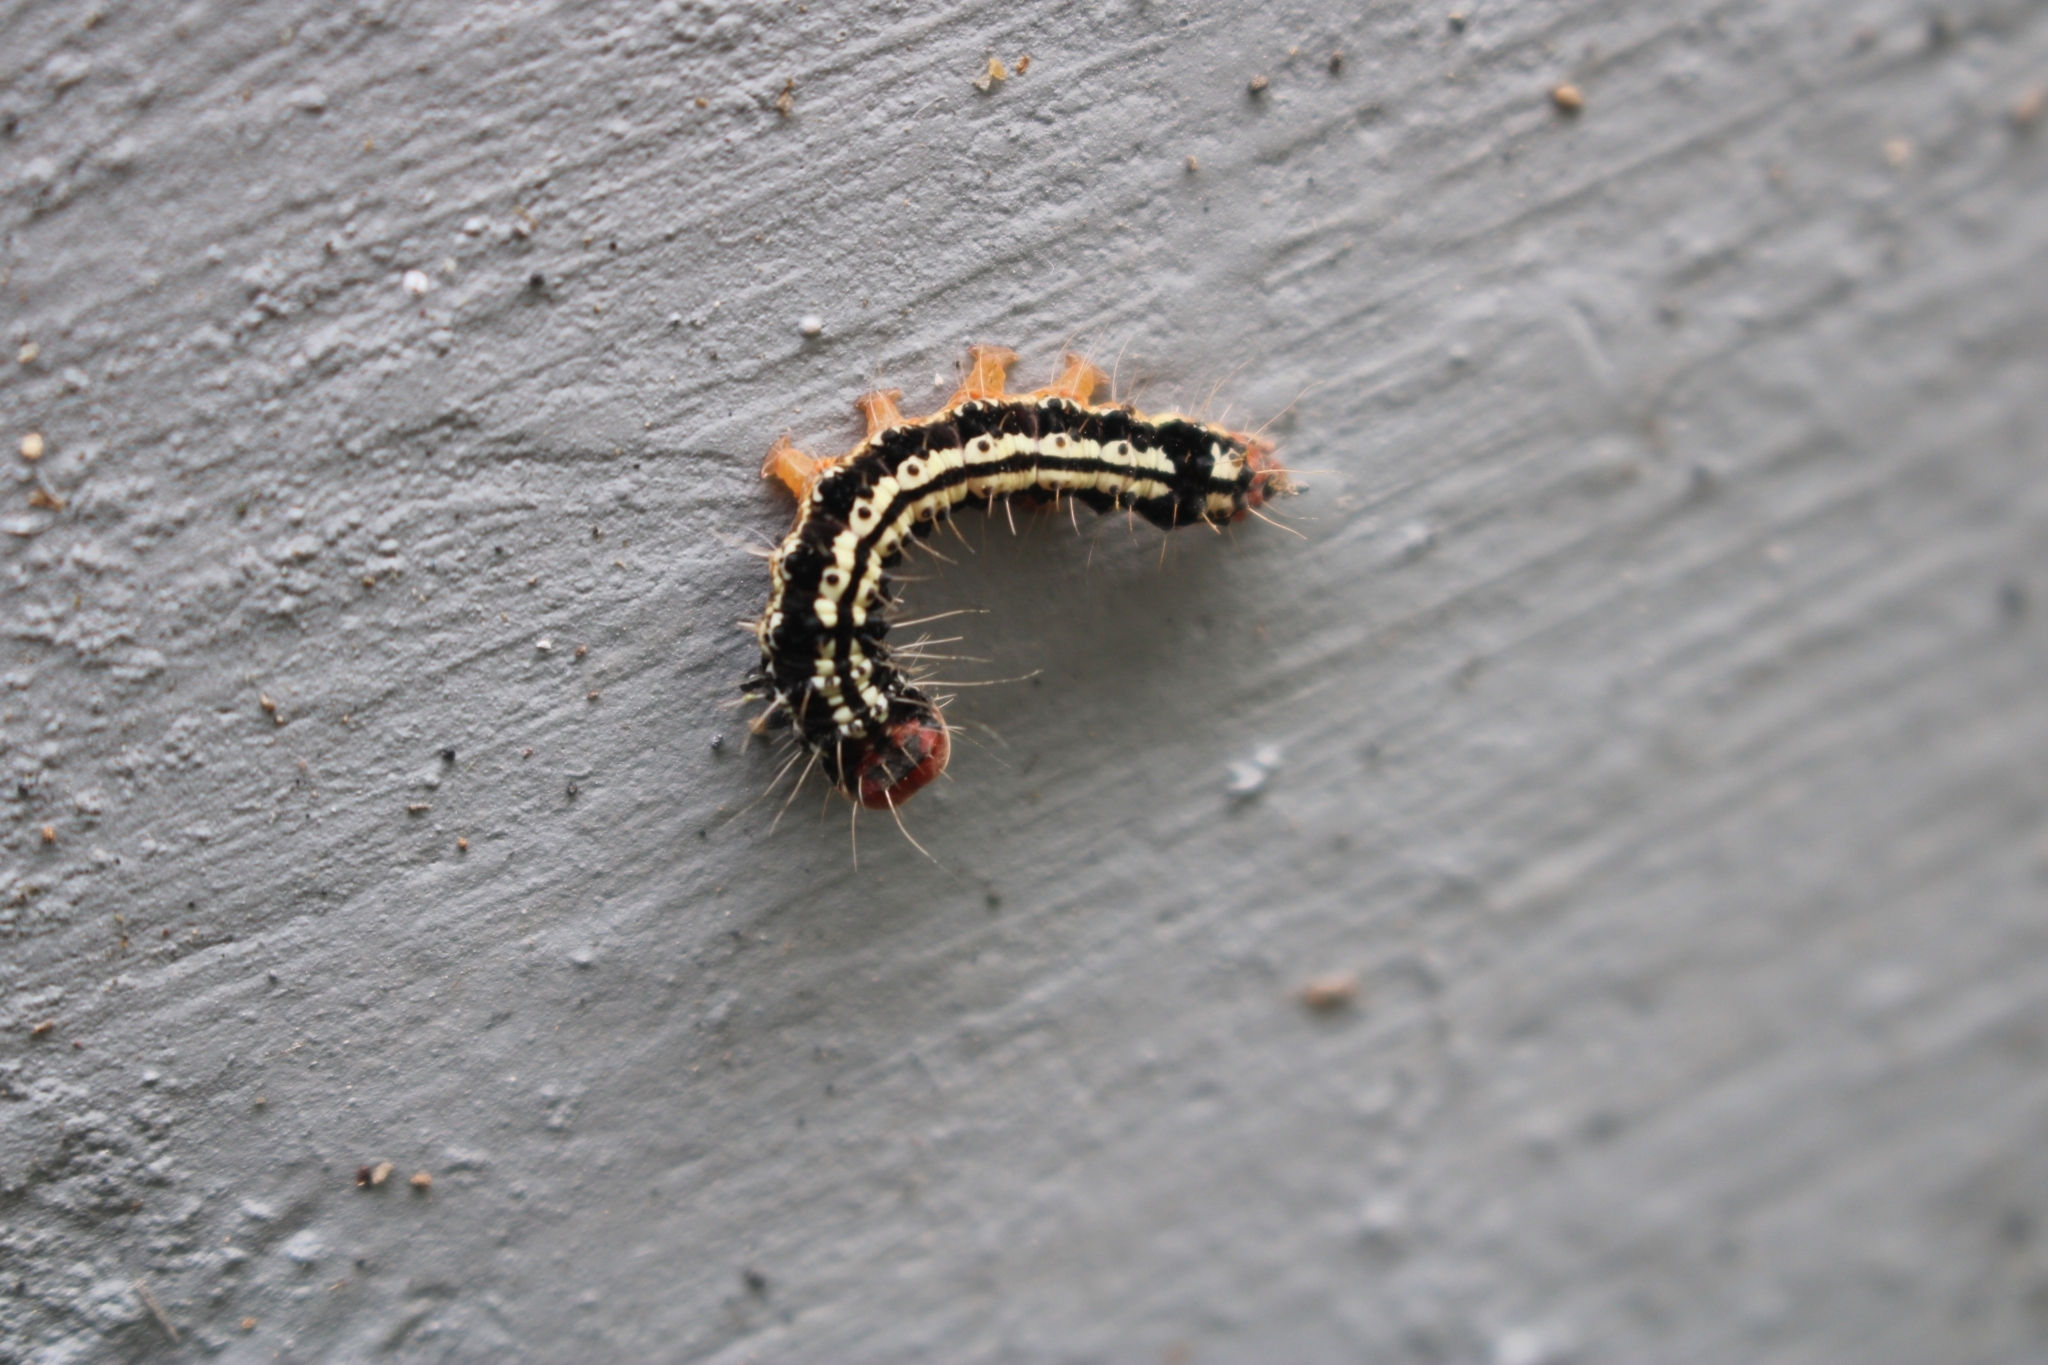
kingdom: Animalia
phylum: Arthropoda
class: Insecta
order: Lepidoptera
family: Erebidae
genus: Asota
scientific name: Asota caricae
